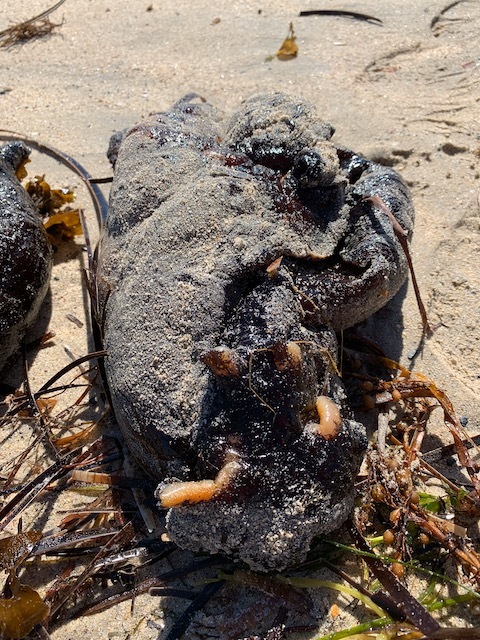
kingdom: Animalia
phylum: Mollusca
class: Gastropoda
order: Aplysiida
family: Aplysiidae
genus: Aplysia
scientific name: Aplysia gigantea
